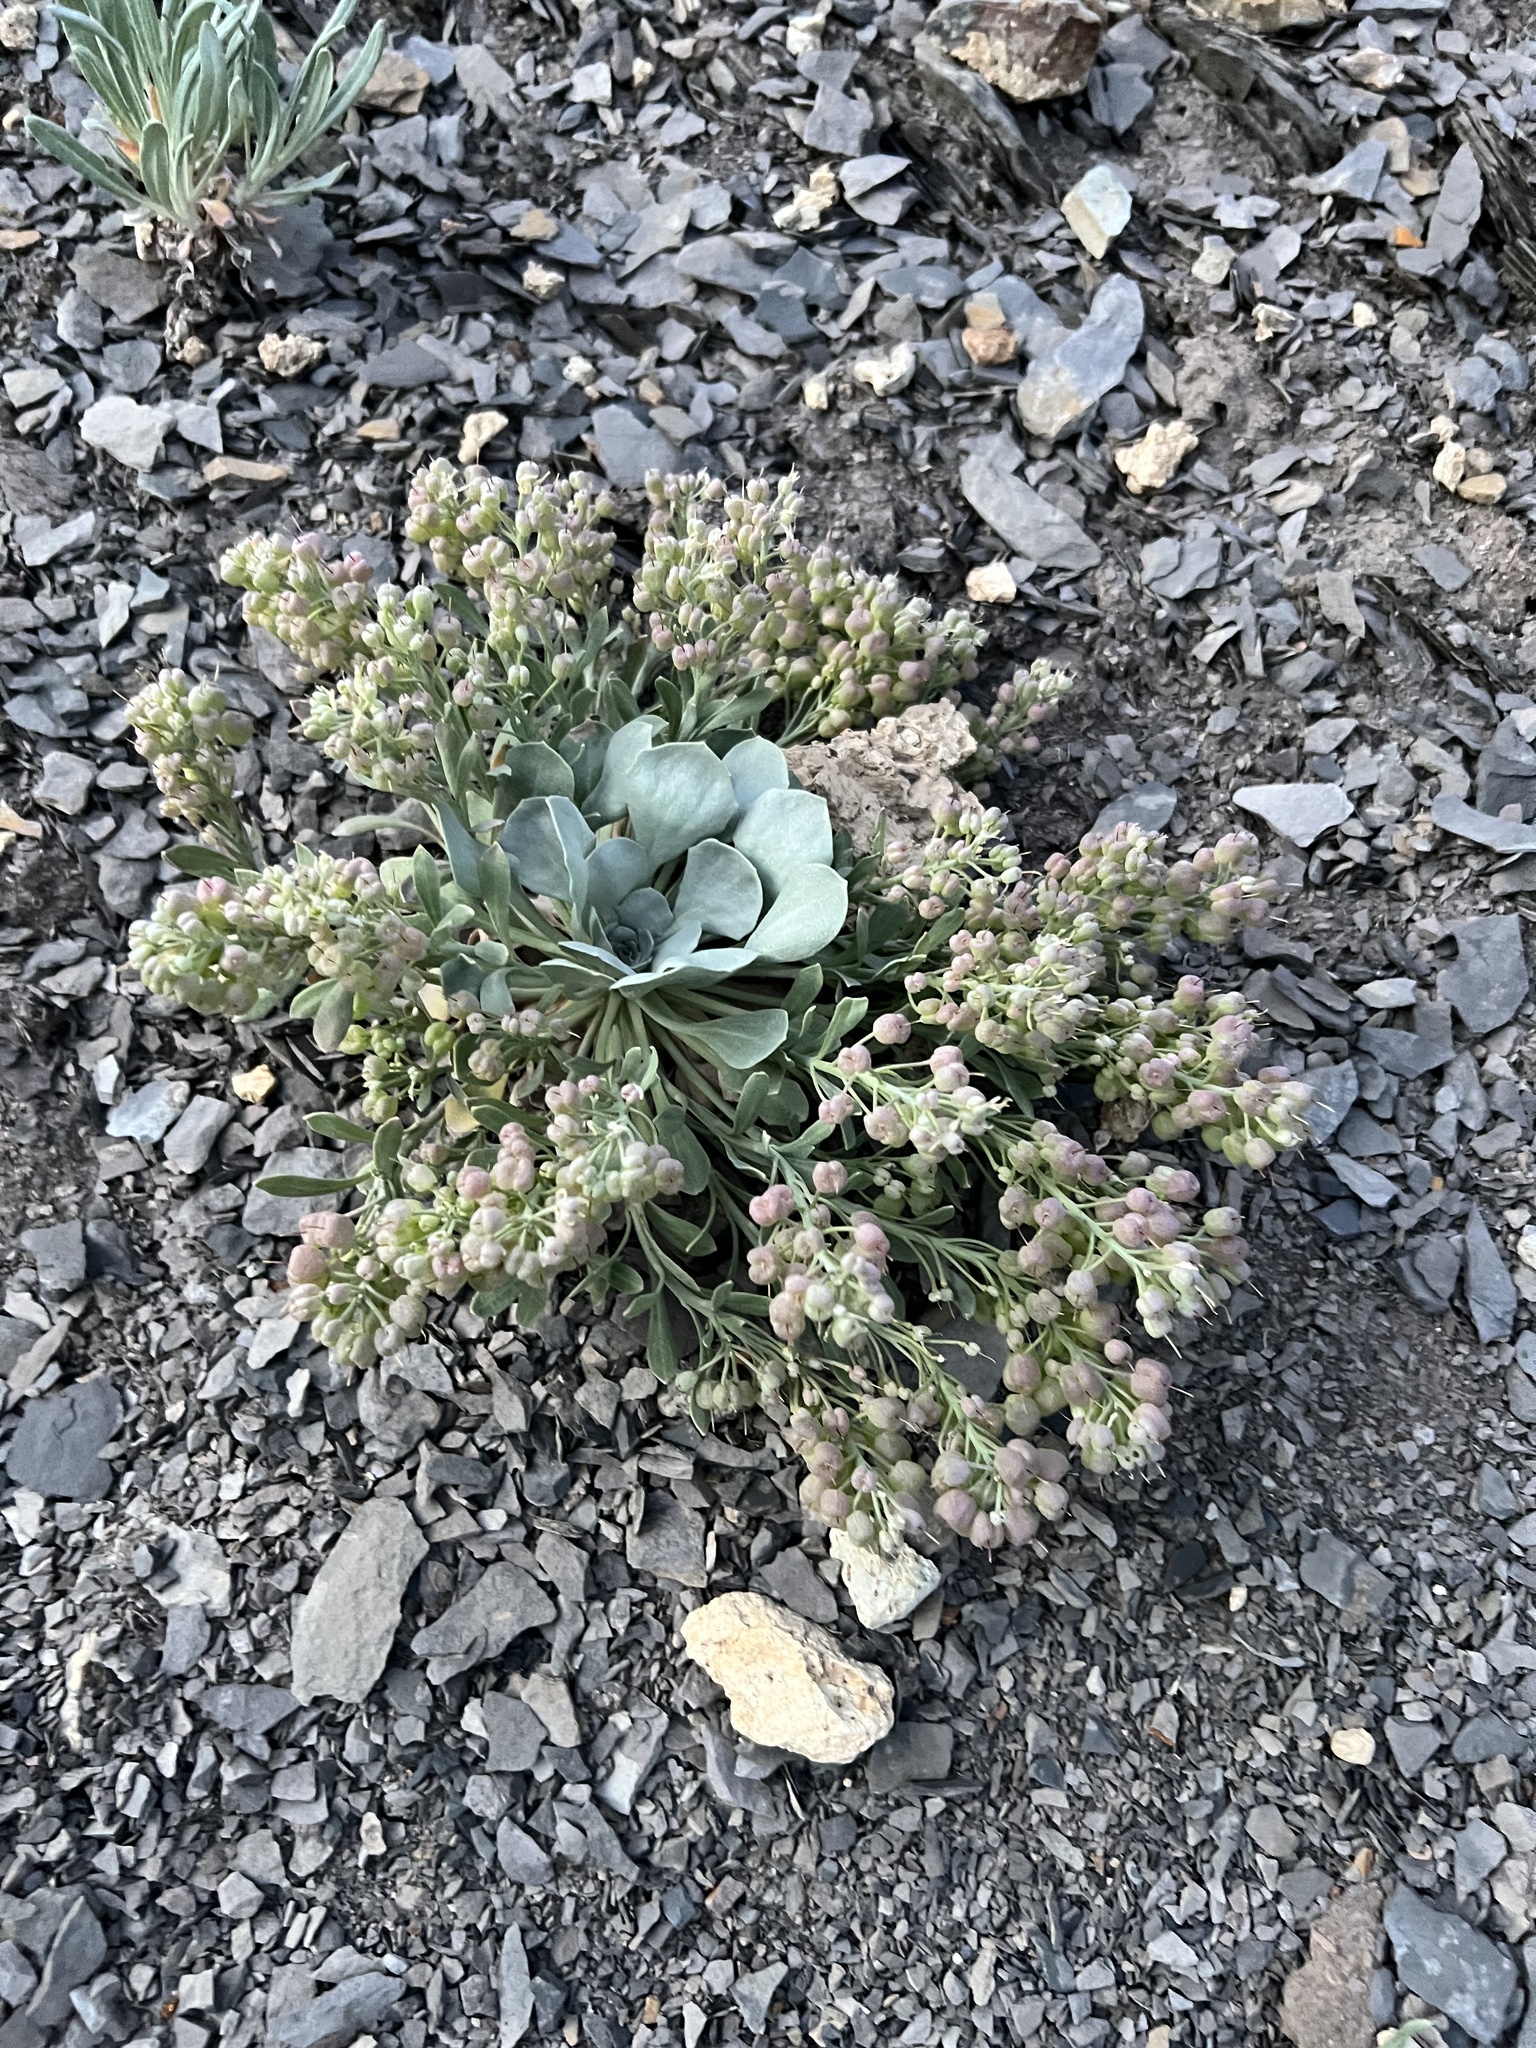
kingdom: Plantae
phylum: Tracheophyta
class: Magnoliopsida
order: Brassicales
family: Brassicaceae
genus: Physaria
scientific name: Physaria bellii
